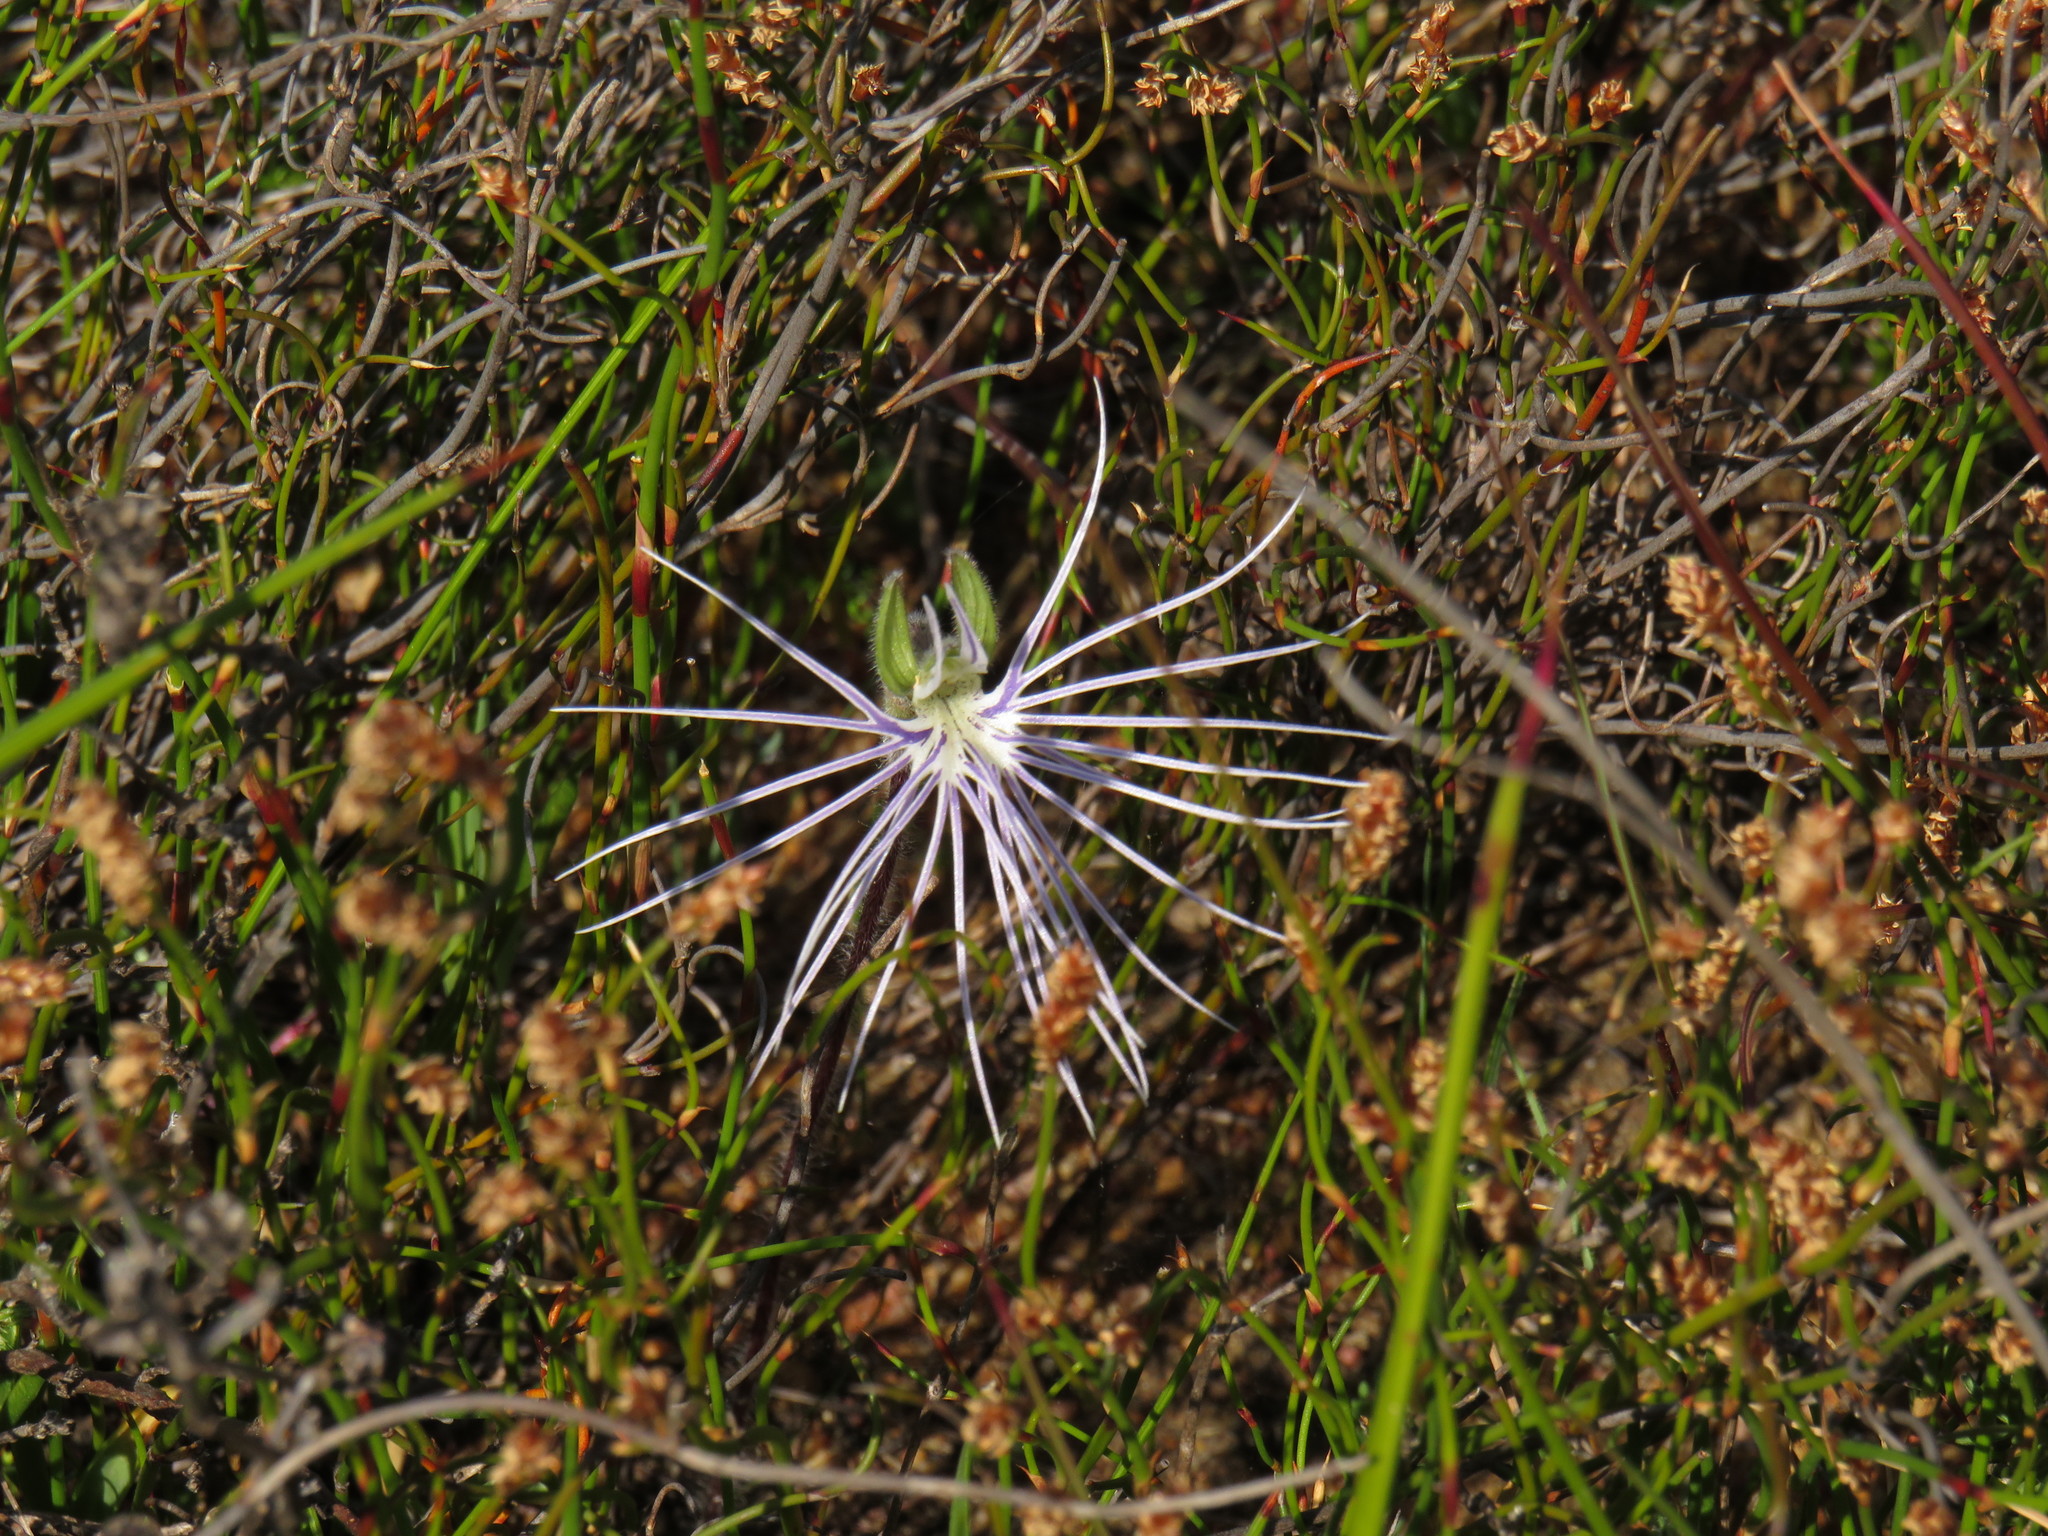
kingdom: Plantae
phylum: Tracheophyta
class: Liliopsida
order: Asparagales
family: Orchidaceae
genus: Holothrix
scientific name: Holothrix burmanniana
